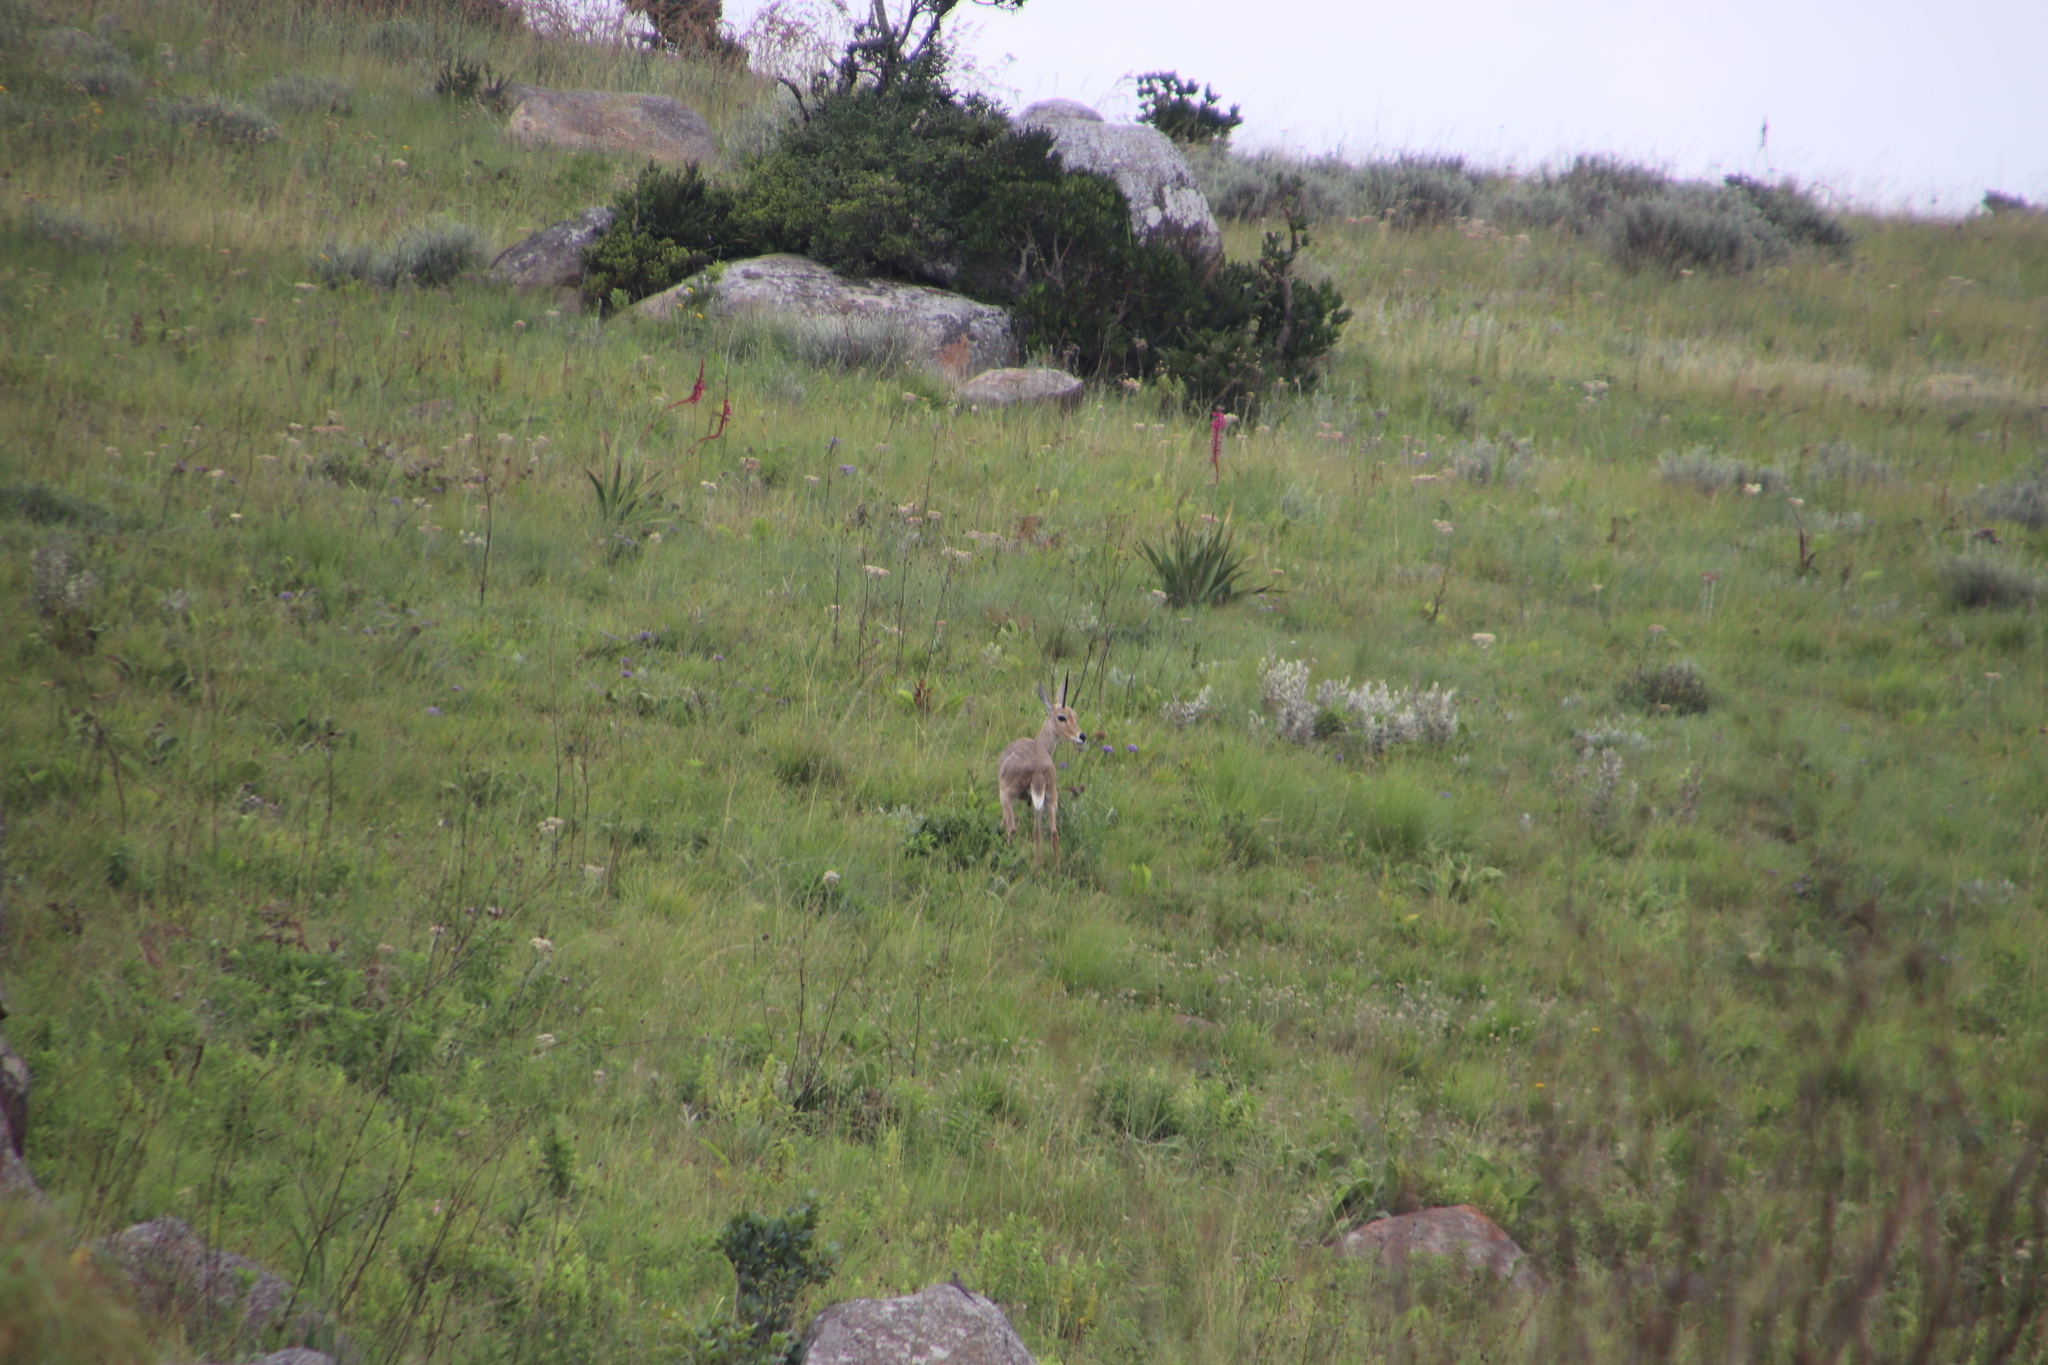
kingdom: Animalia
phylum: Chordata
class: Mammalia
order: Artiodactyla
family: Bovidae
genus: Pelea
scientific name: Pelea capreolus
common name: Common rhebok
